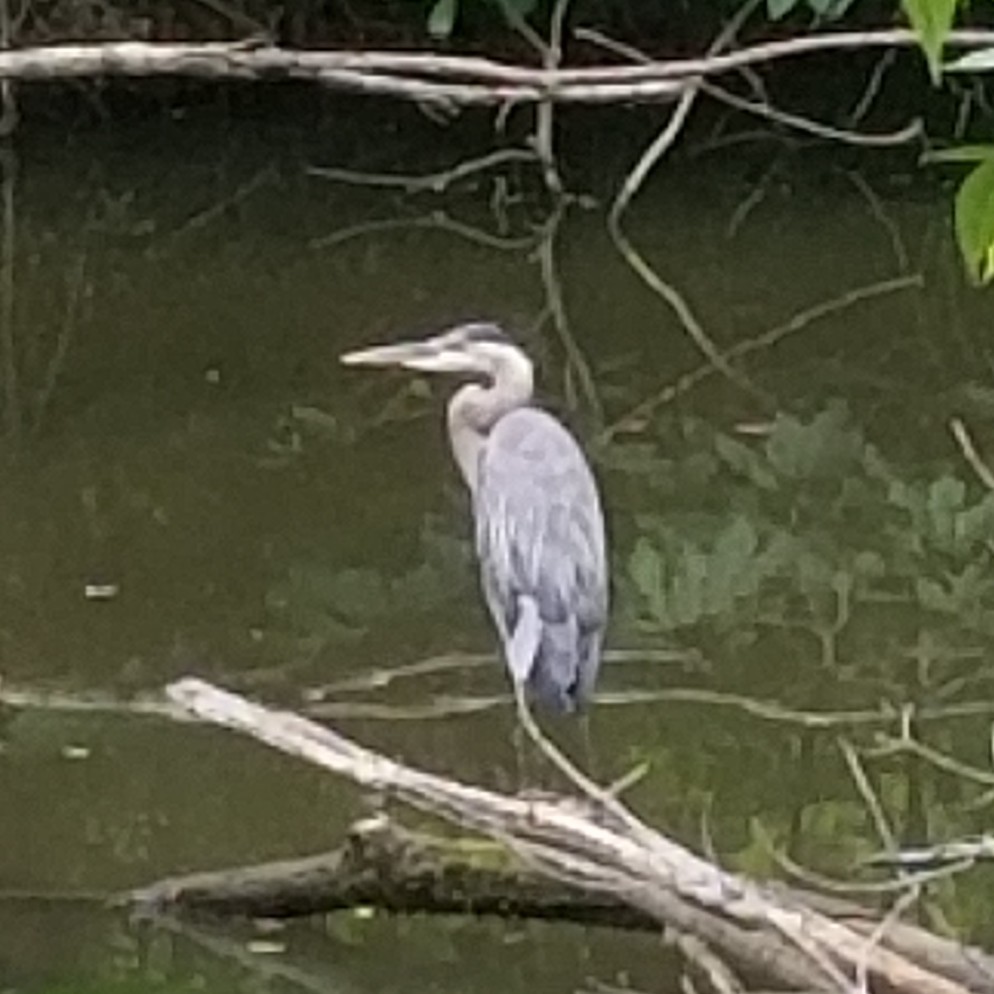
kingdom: Animalia
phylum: Chordata
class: Aves
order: Pelecaniformes
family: Ardeidae
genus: Ardea
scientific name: Ardea herodias
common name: Great blue heron
